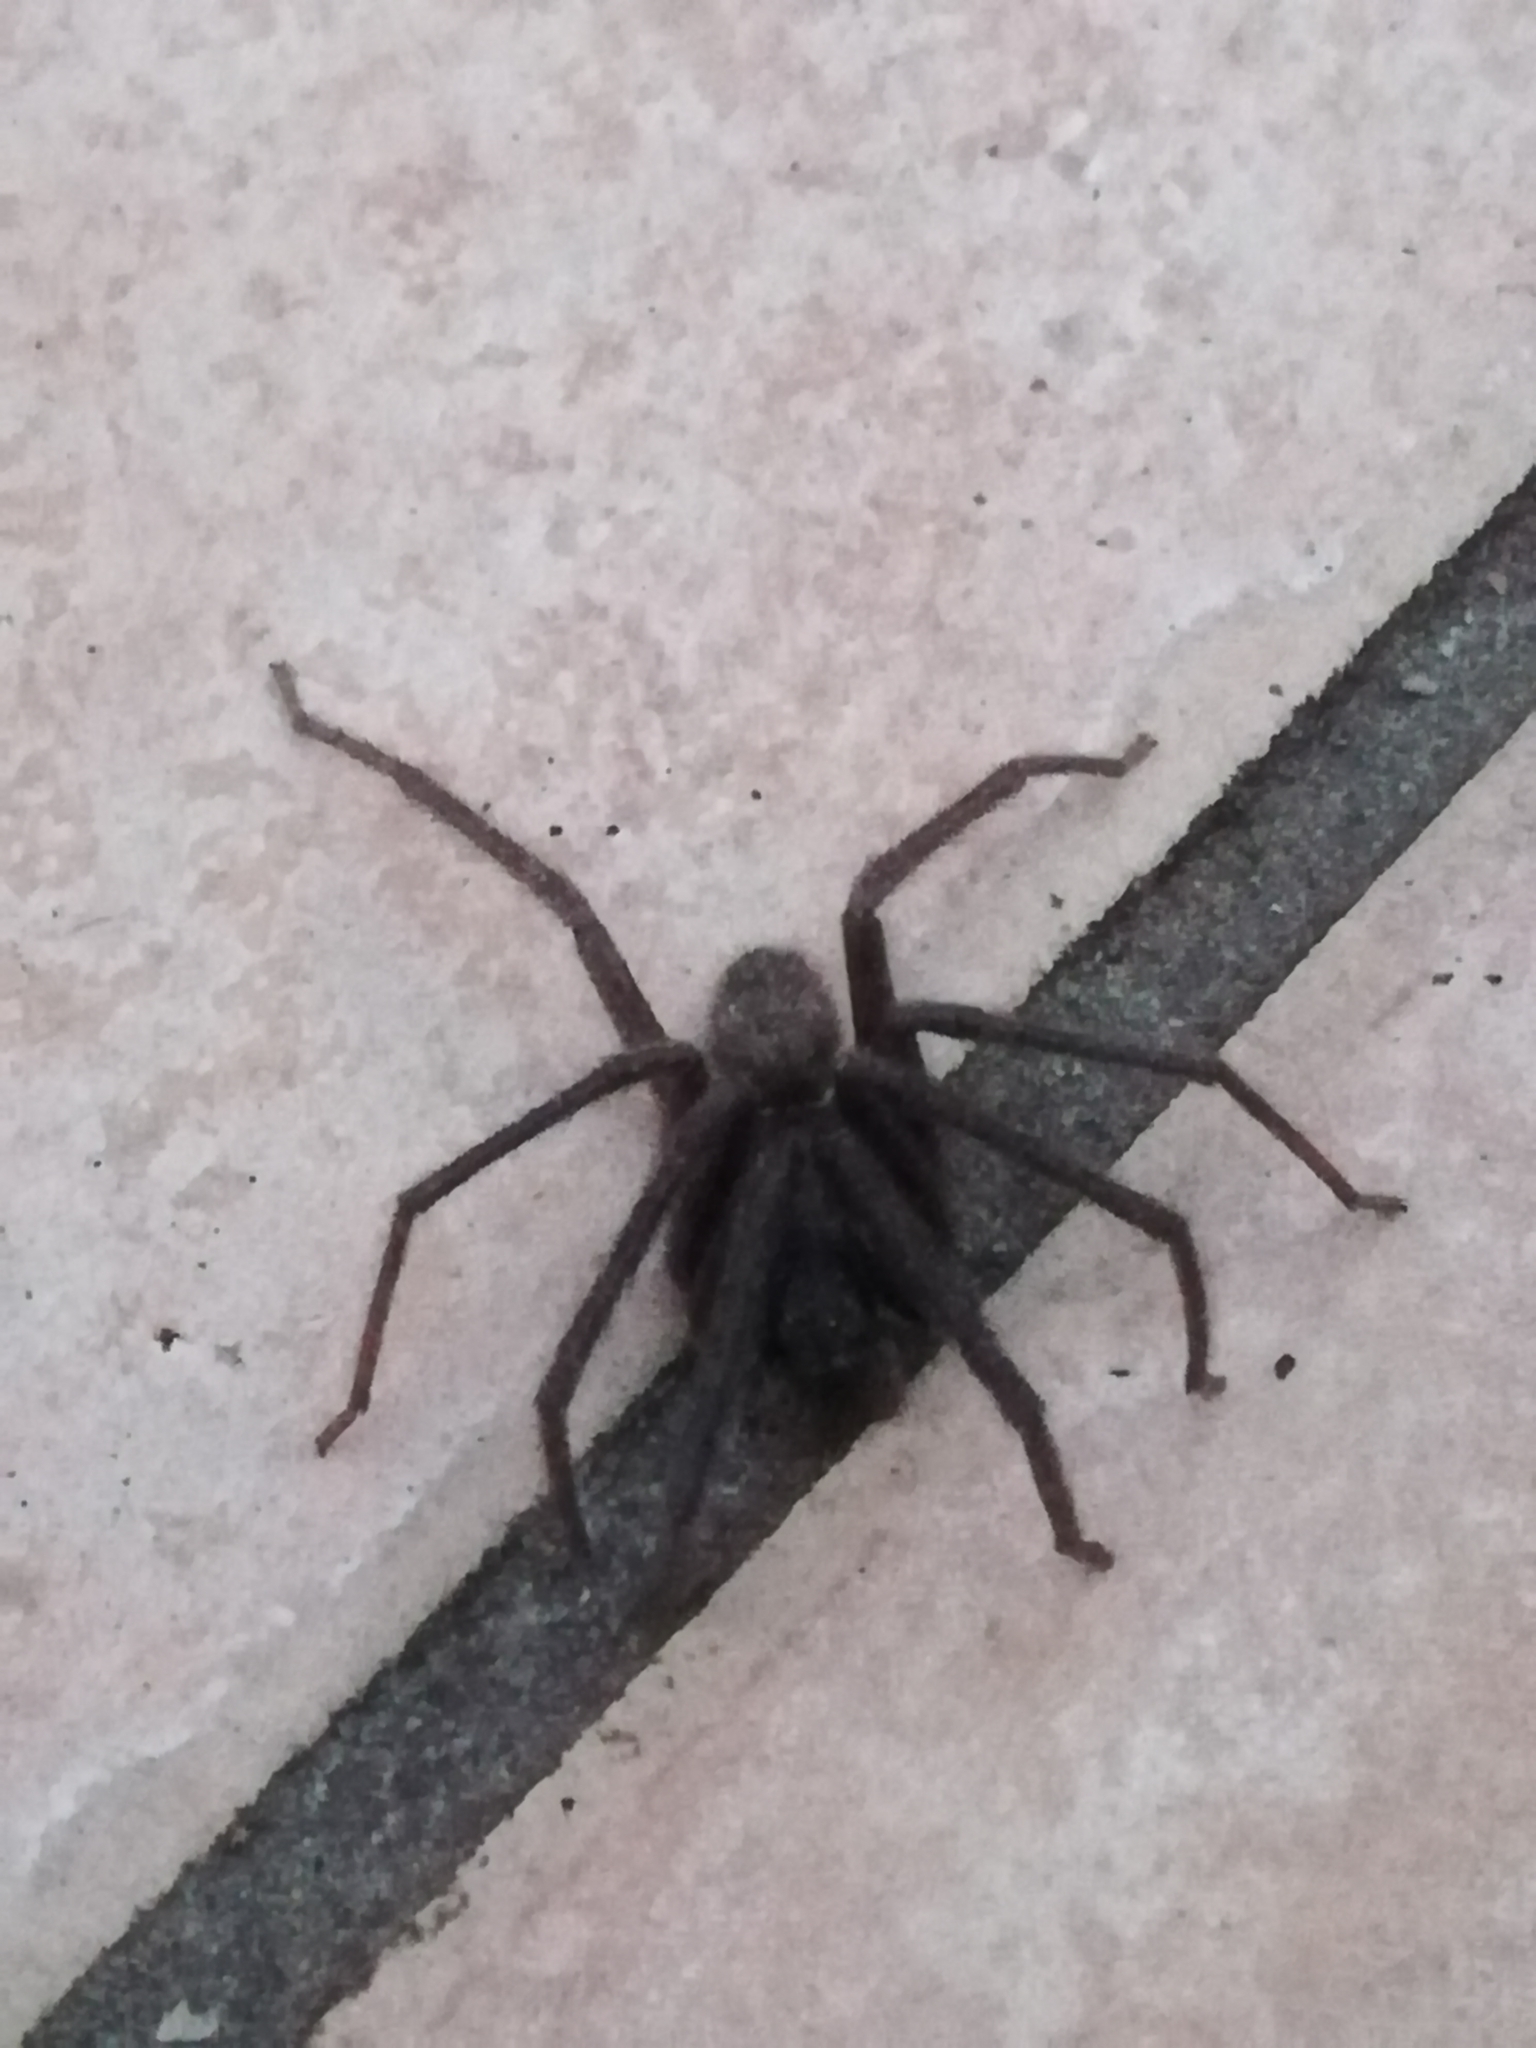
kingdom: Animalia
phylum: Arthropoda
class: Arachnida
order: Araneae
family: Segestriidae
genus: Segestria
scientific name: Segestria florentina
